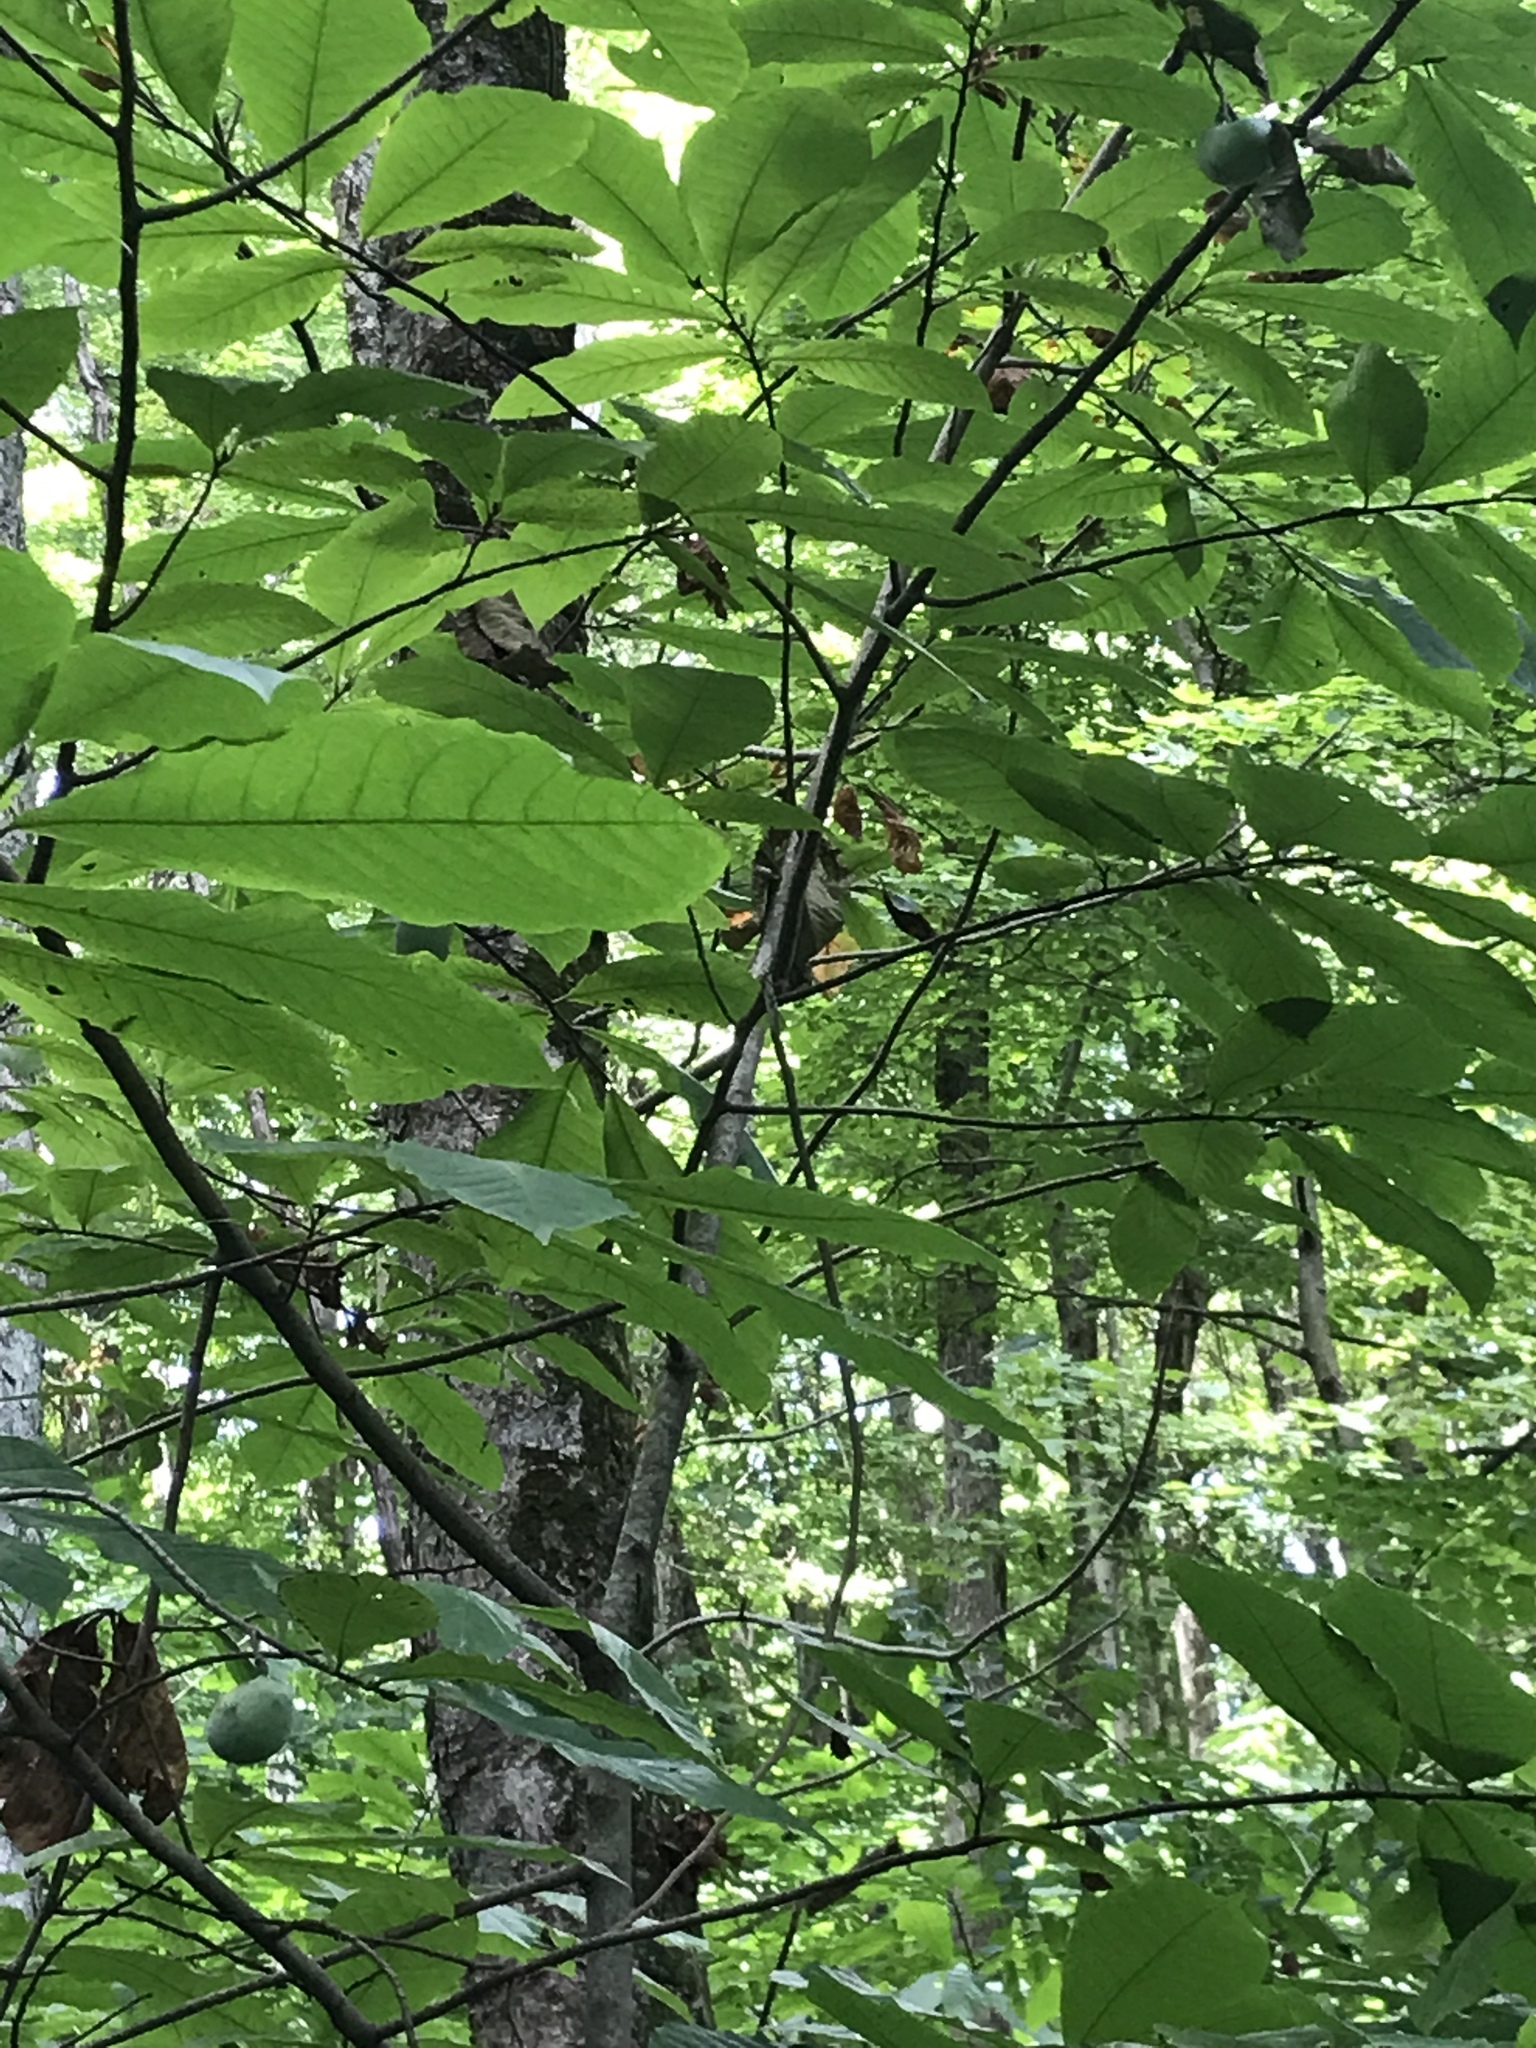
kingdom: Plantae
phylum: Tracheophyta
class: Magnoliopsida
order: Magnoliales
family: Annonaceae
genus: Asimina
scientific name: Asimina triloba
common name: Dog-banana
